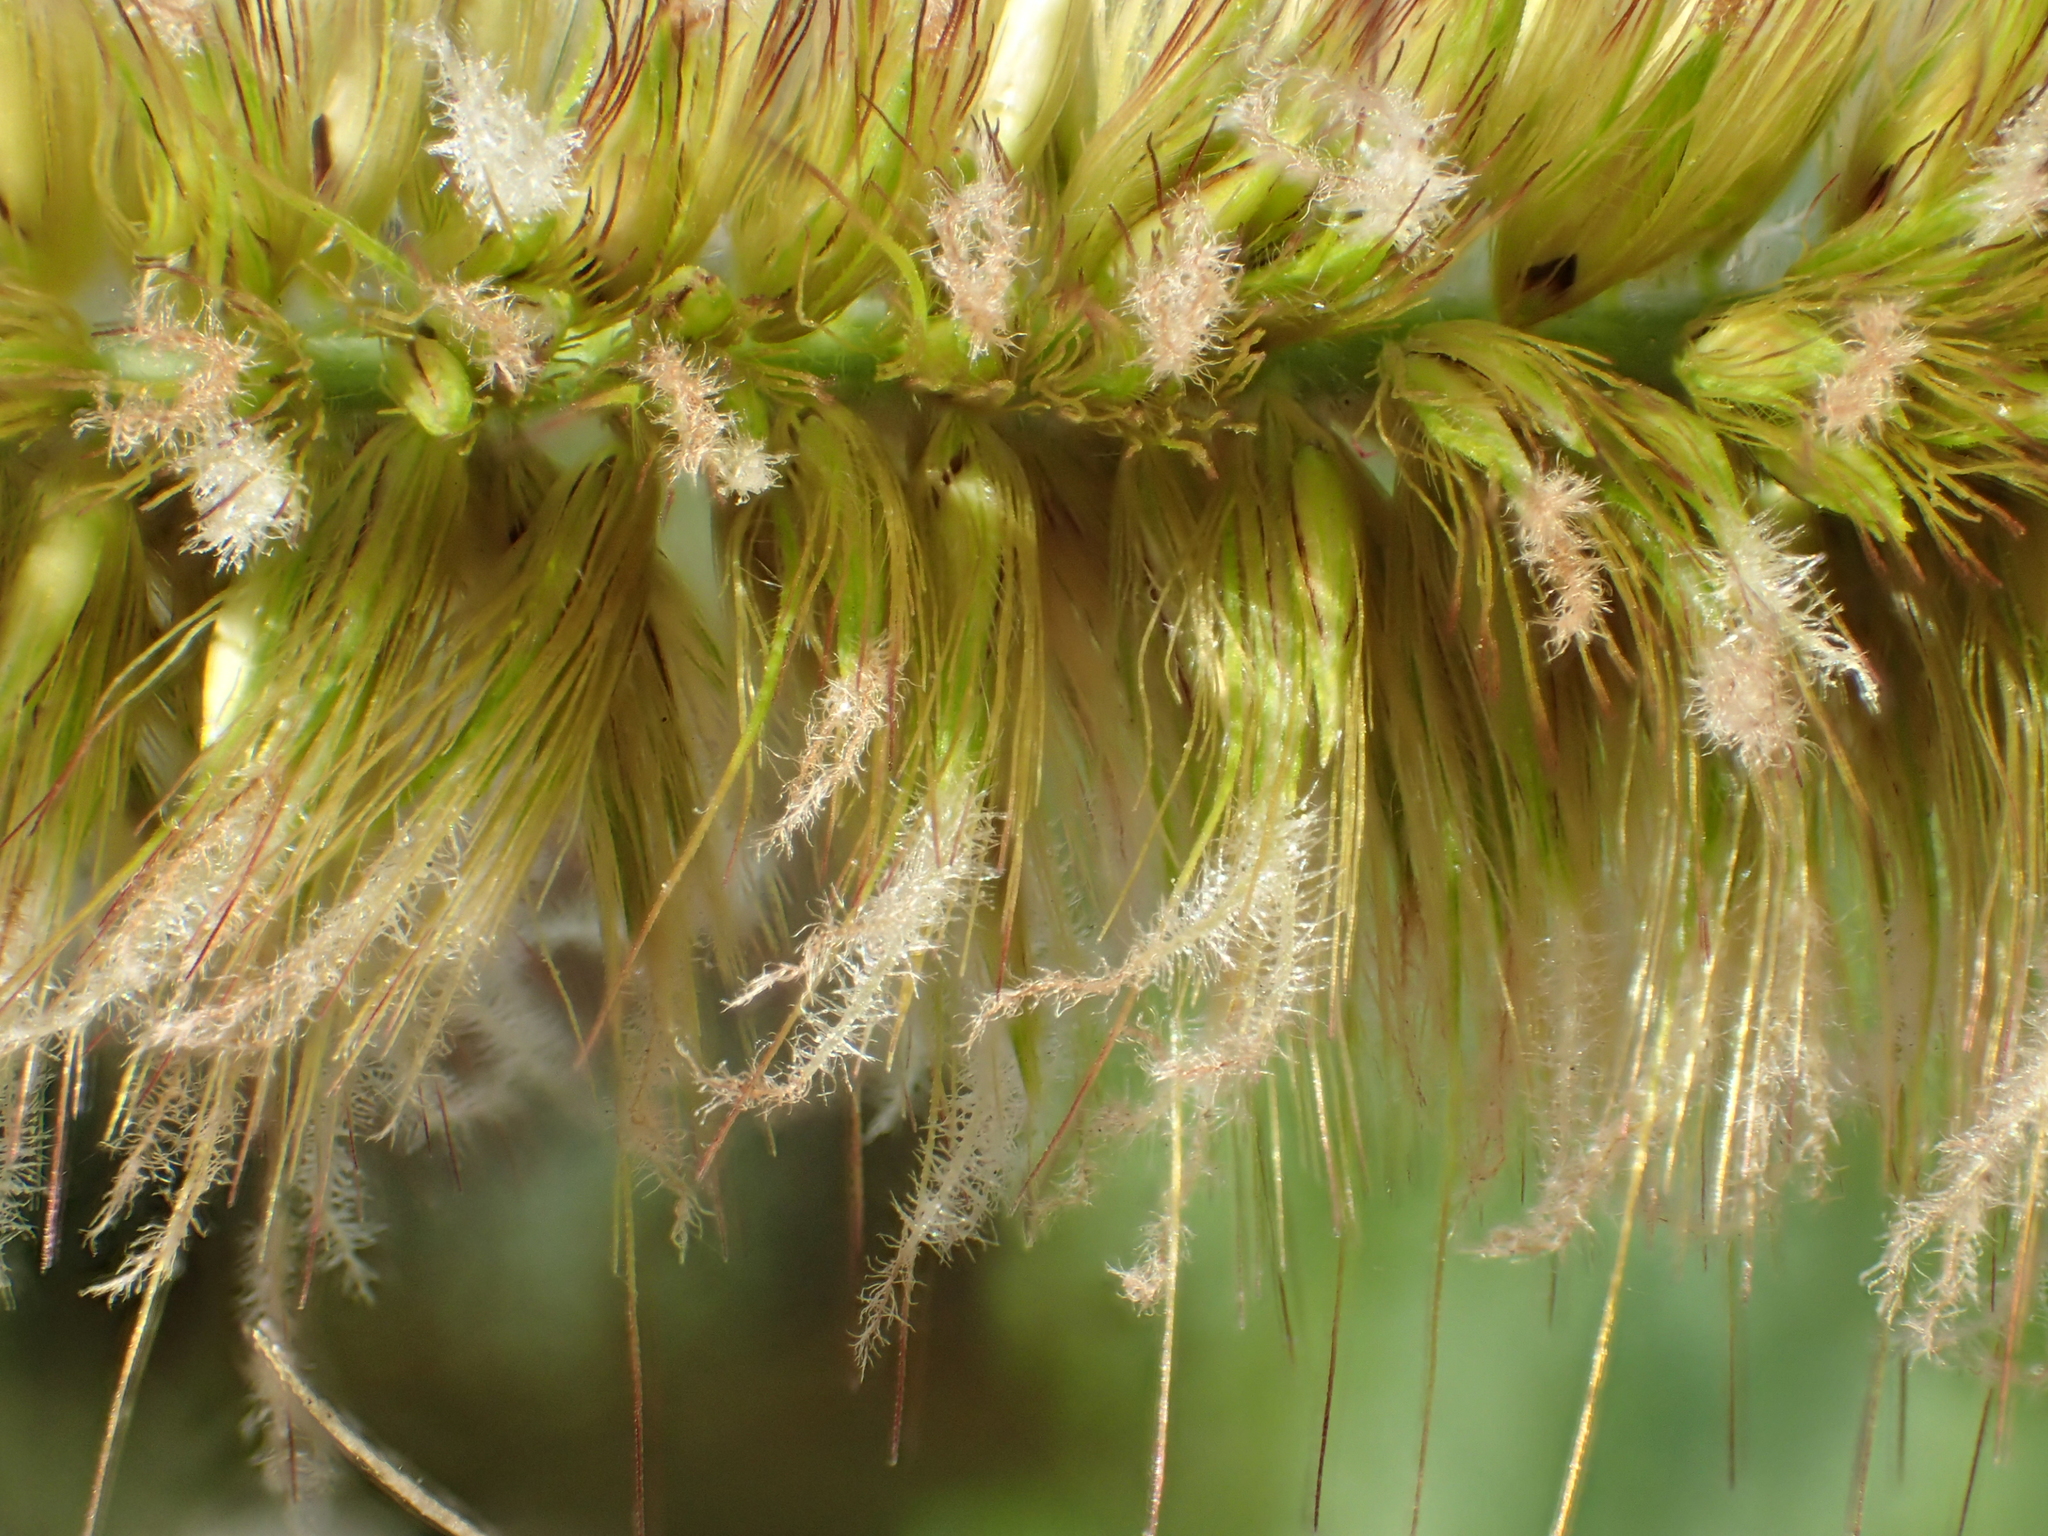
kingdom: Plantae
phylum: Tracheophyta
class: Liliopsida
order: Poales
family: Poaceae
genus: Cenchrus
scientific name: Cenchrus purpureus
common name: Elephant grass
